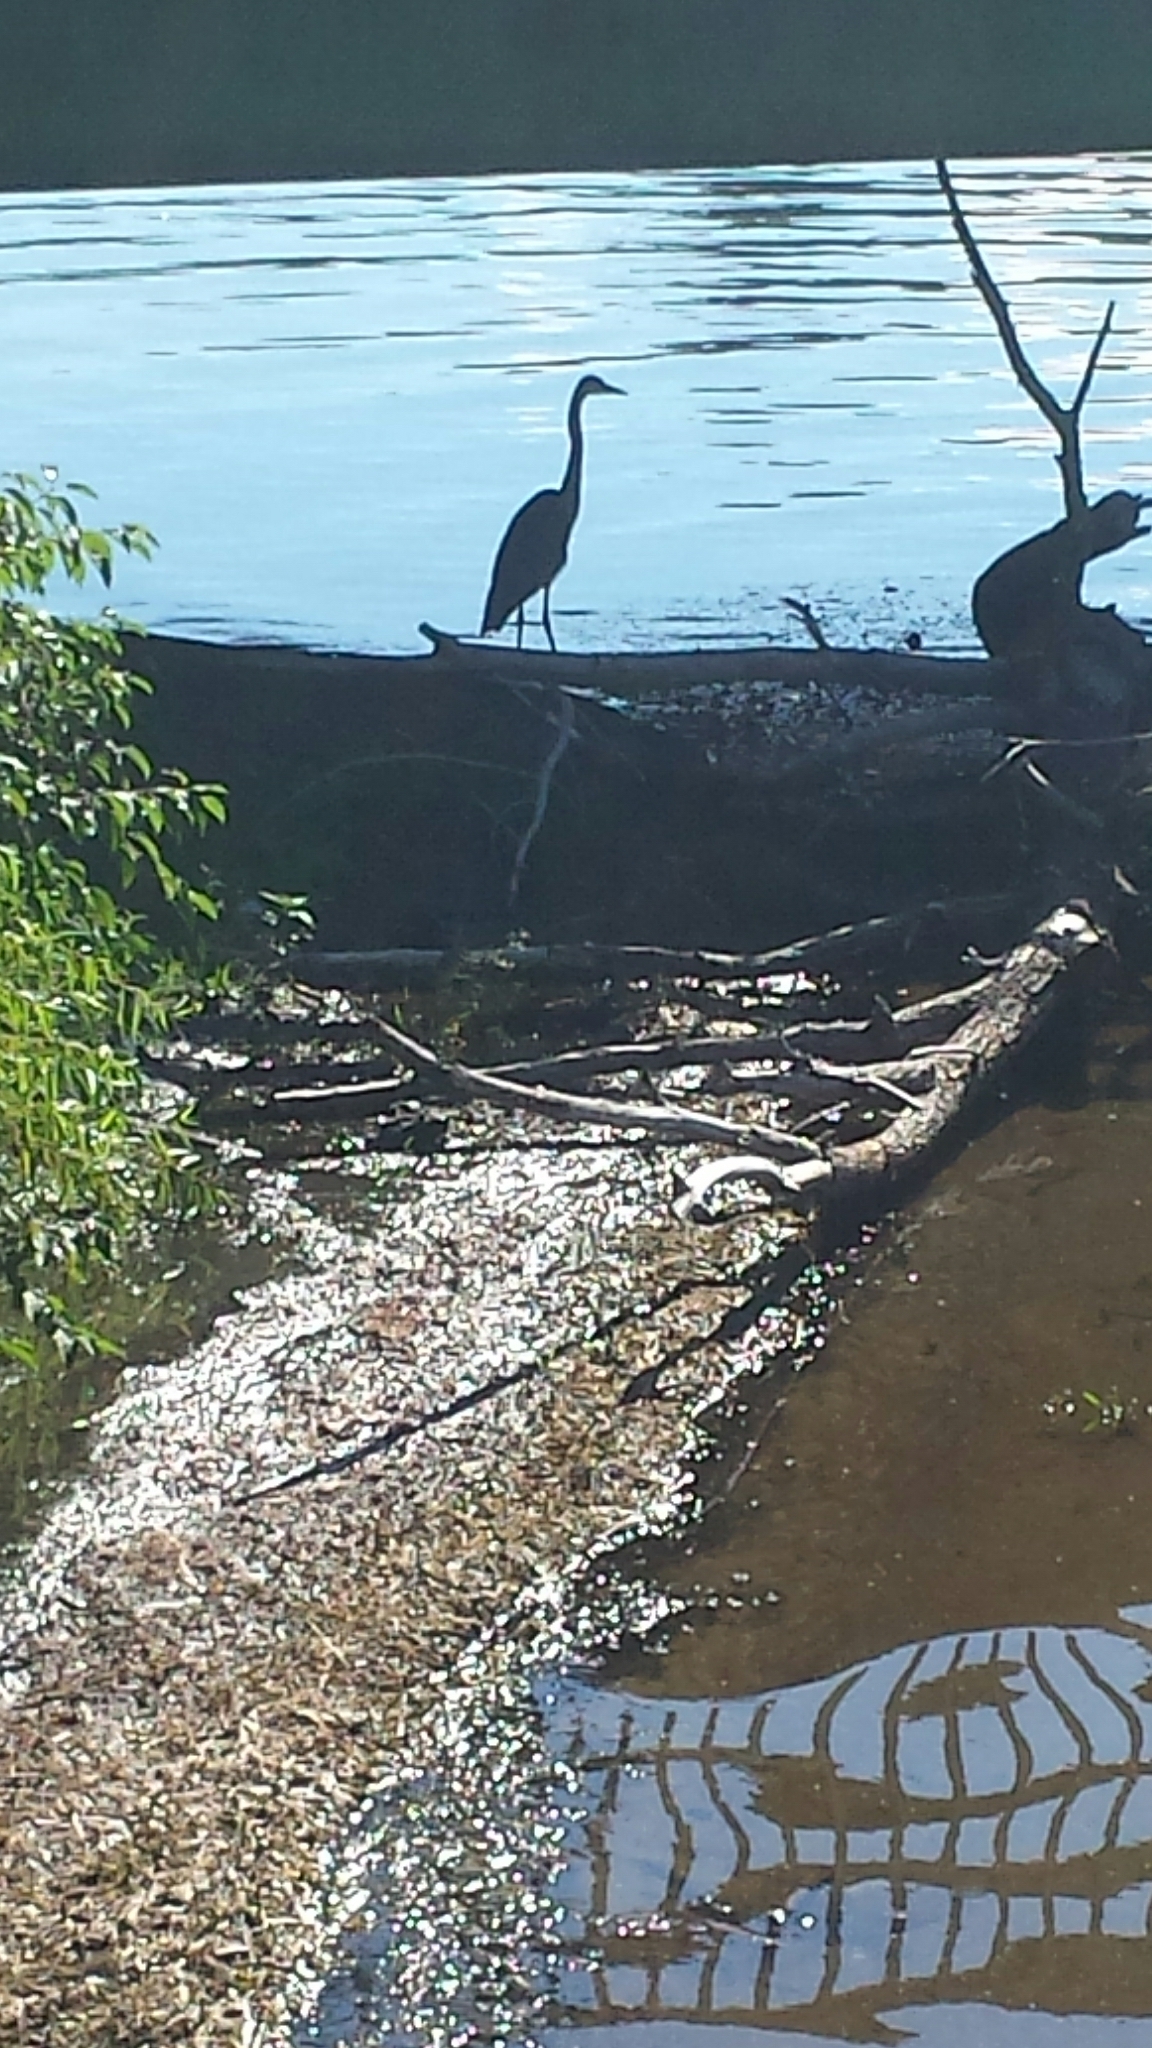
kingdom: Animalia
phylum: Chordata
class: Aves
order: Pelecaniformes
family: Ardeidae
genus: Ardea
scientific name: Ardea herodias
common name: Great blue heron
